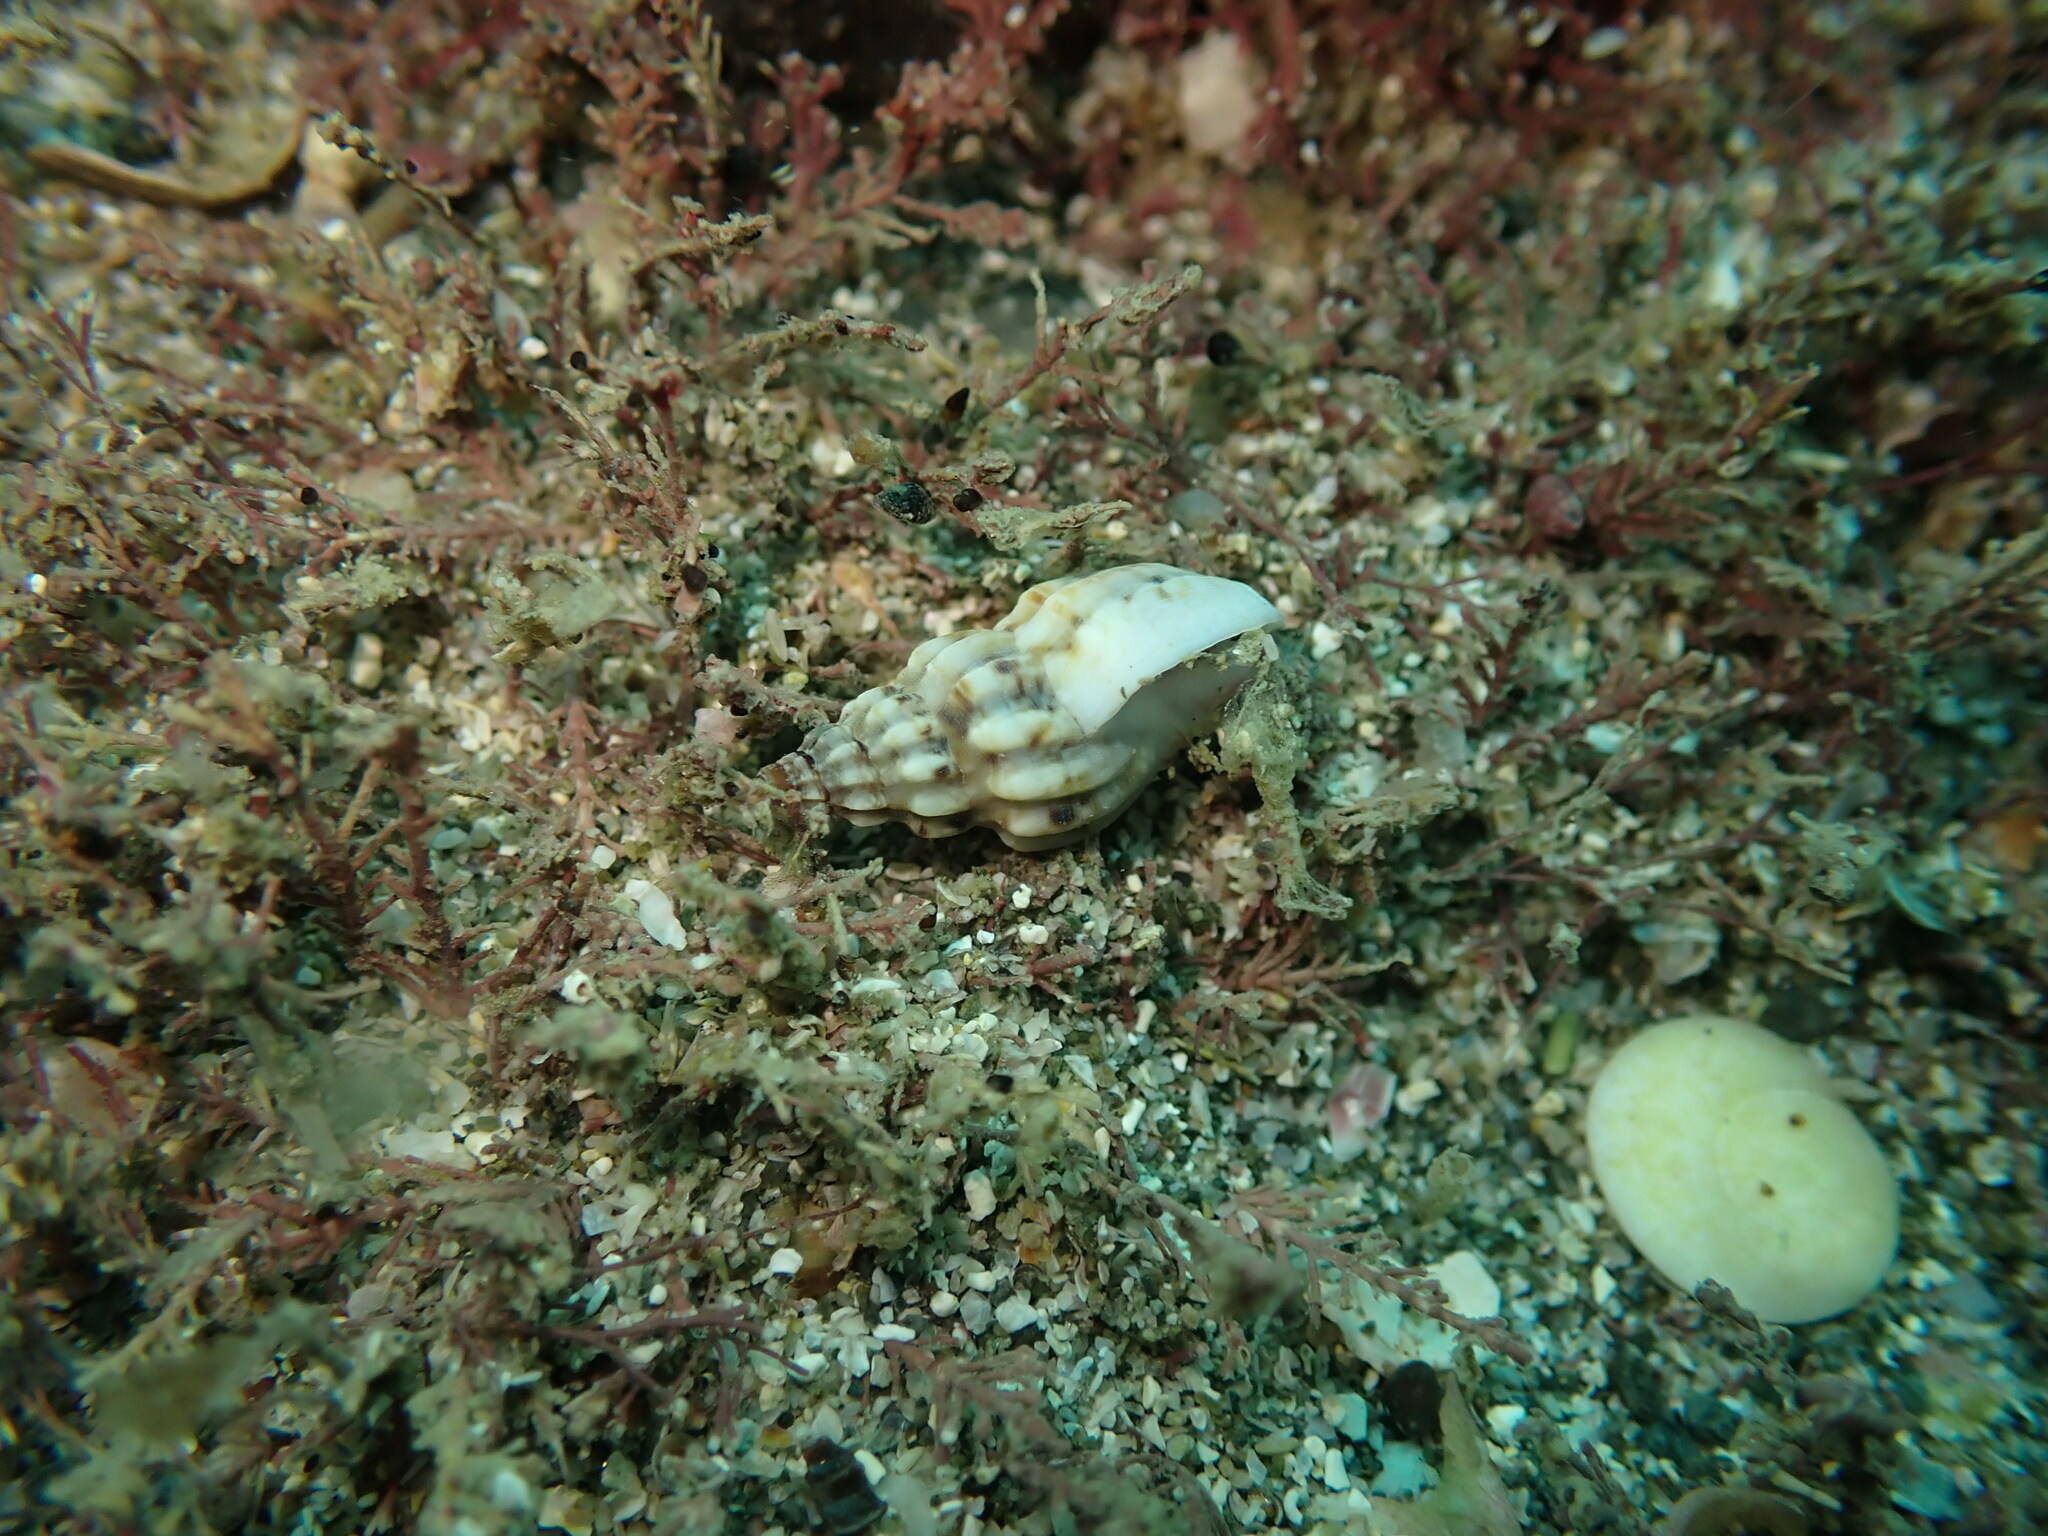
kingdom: Animalia
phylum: Mollusca
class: Gastropoda
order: Neogastropoda
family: Cominellidae
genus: Cominella
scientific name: Cominella quoyana
